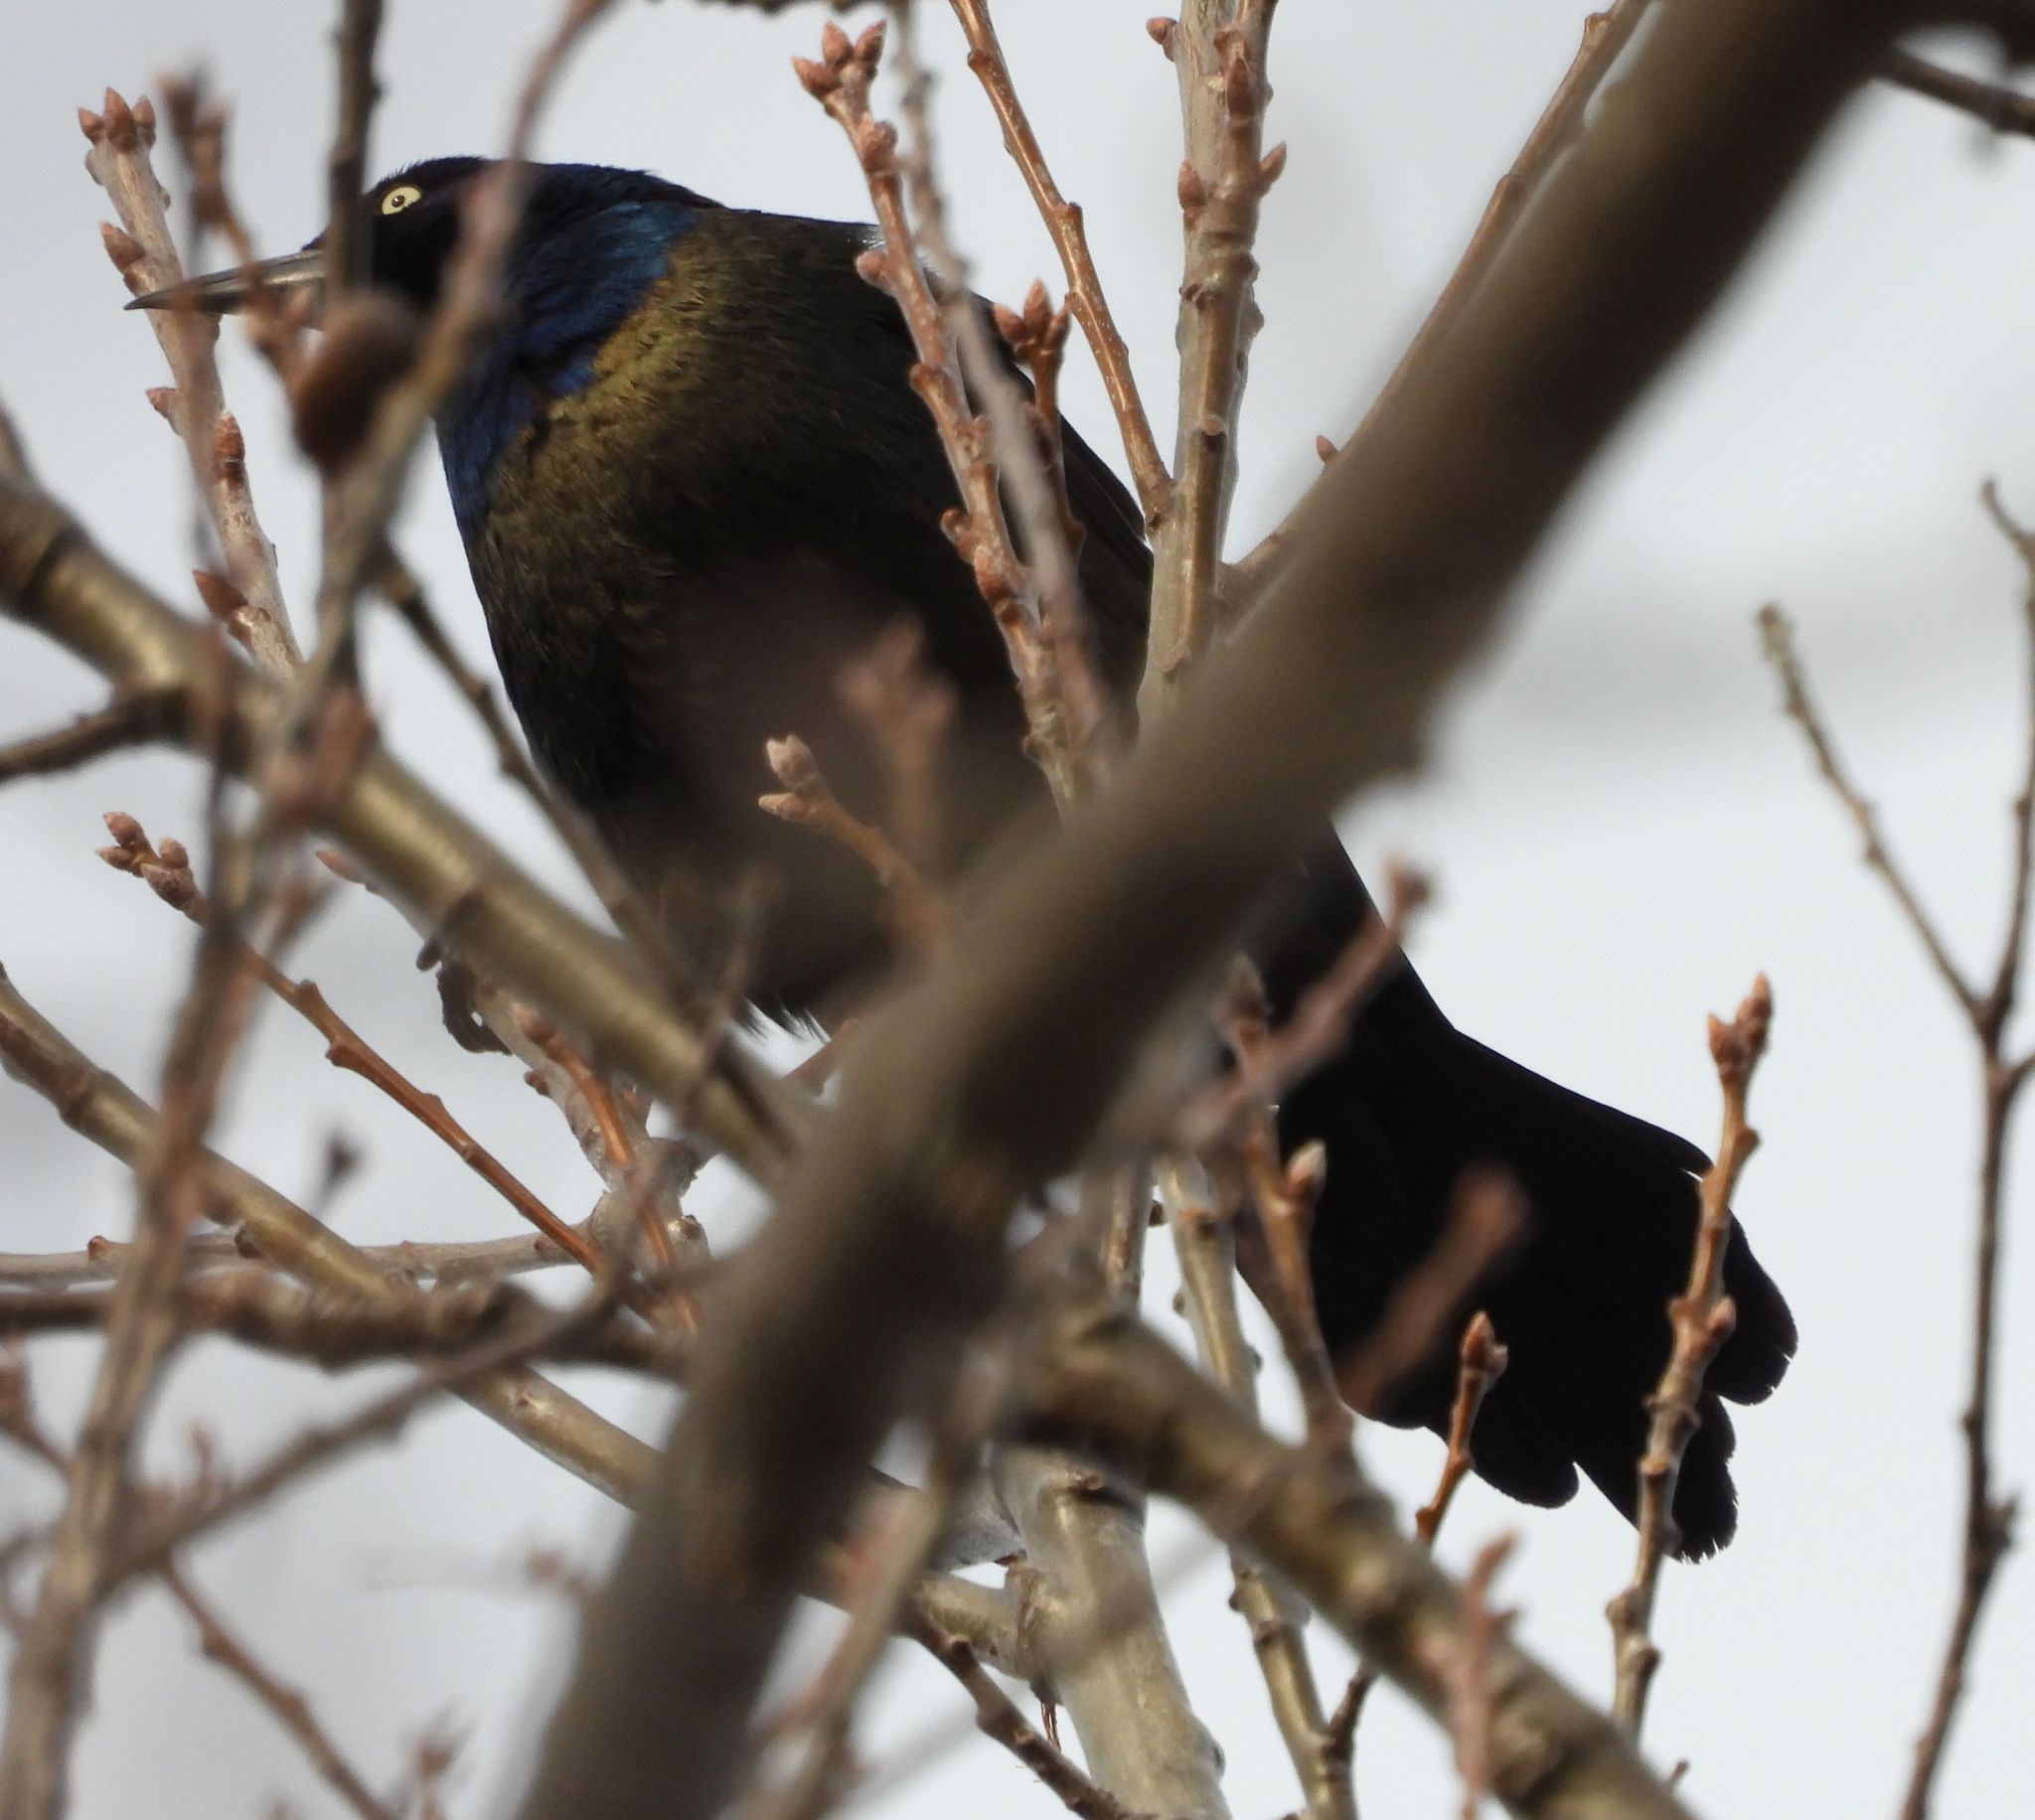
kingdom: Animalia
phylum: Chordata
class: Aves
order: Passeriformes
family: Icteridae
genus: Quiscalus
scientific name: Quiscalus quiscula
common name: Common grackle
